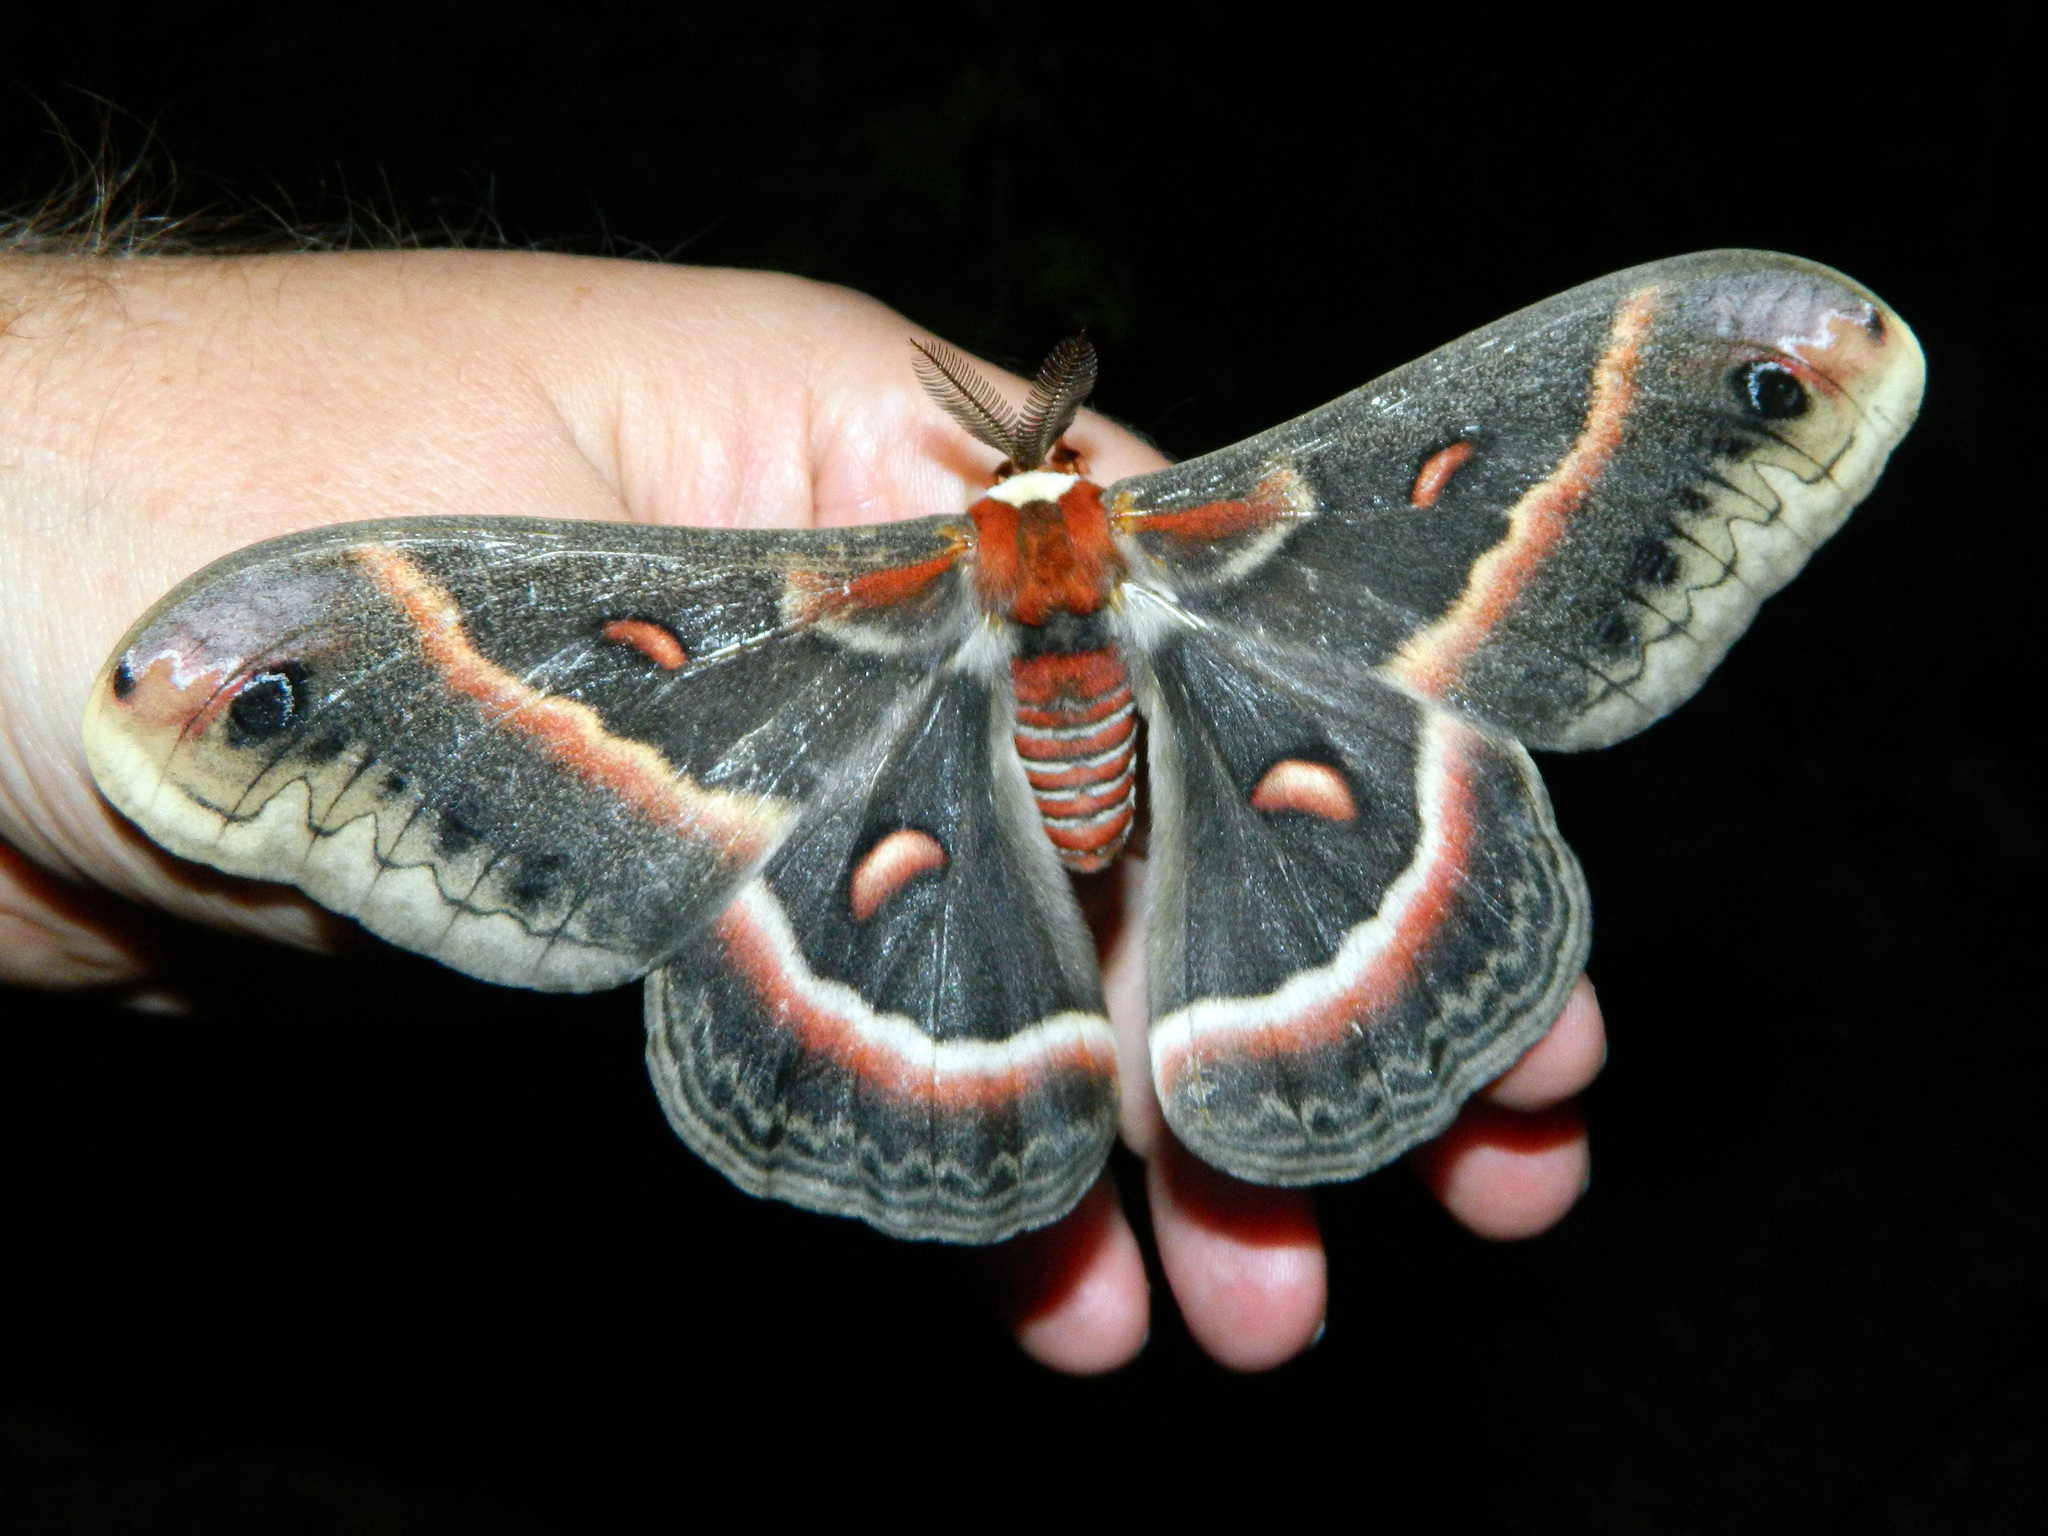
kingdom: Animalia
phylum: Arthropoda
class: Insecta
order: Lepidoptera
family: Saturniidae
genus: Hyalophora
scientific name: Hyalophora cecropia
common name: Cecropia silkmoth
